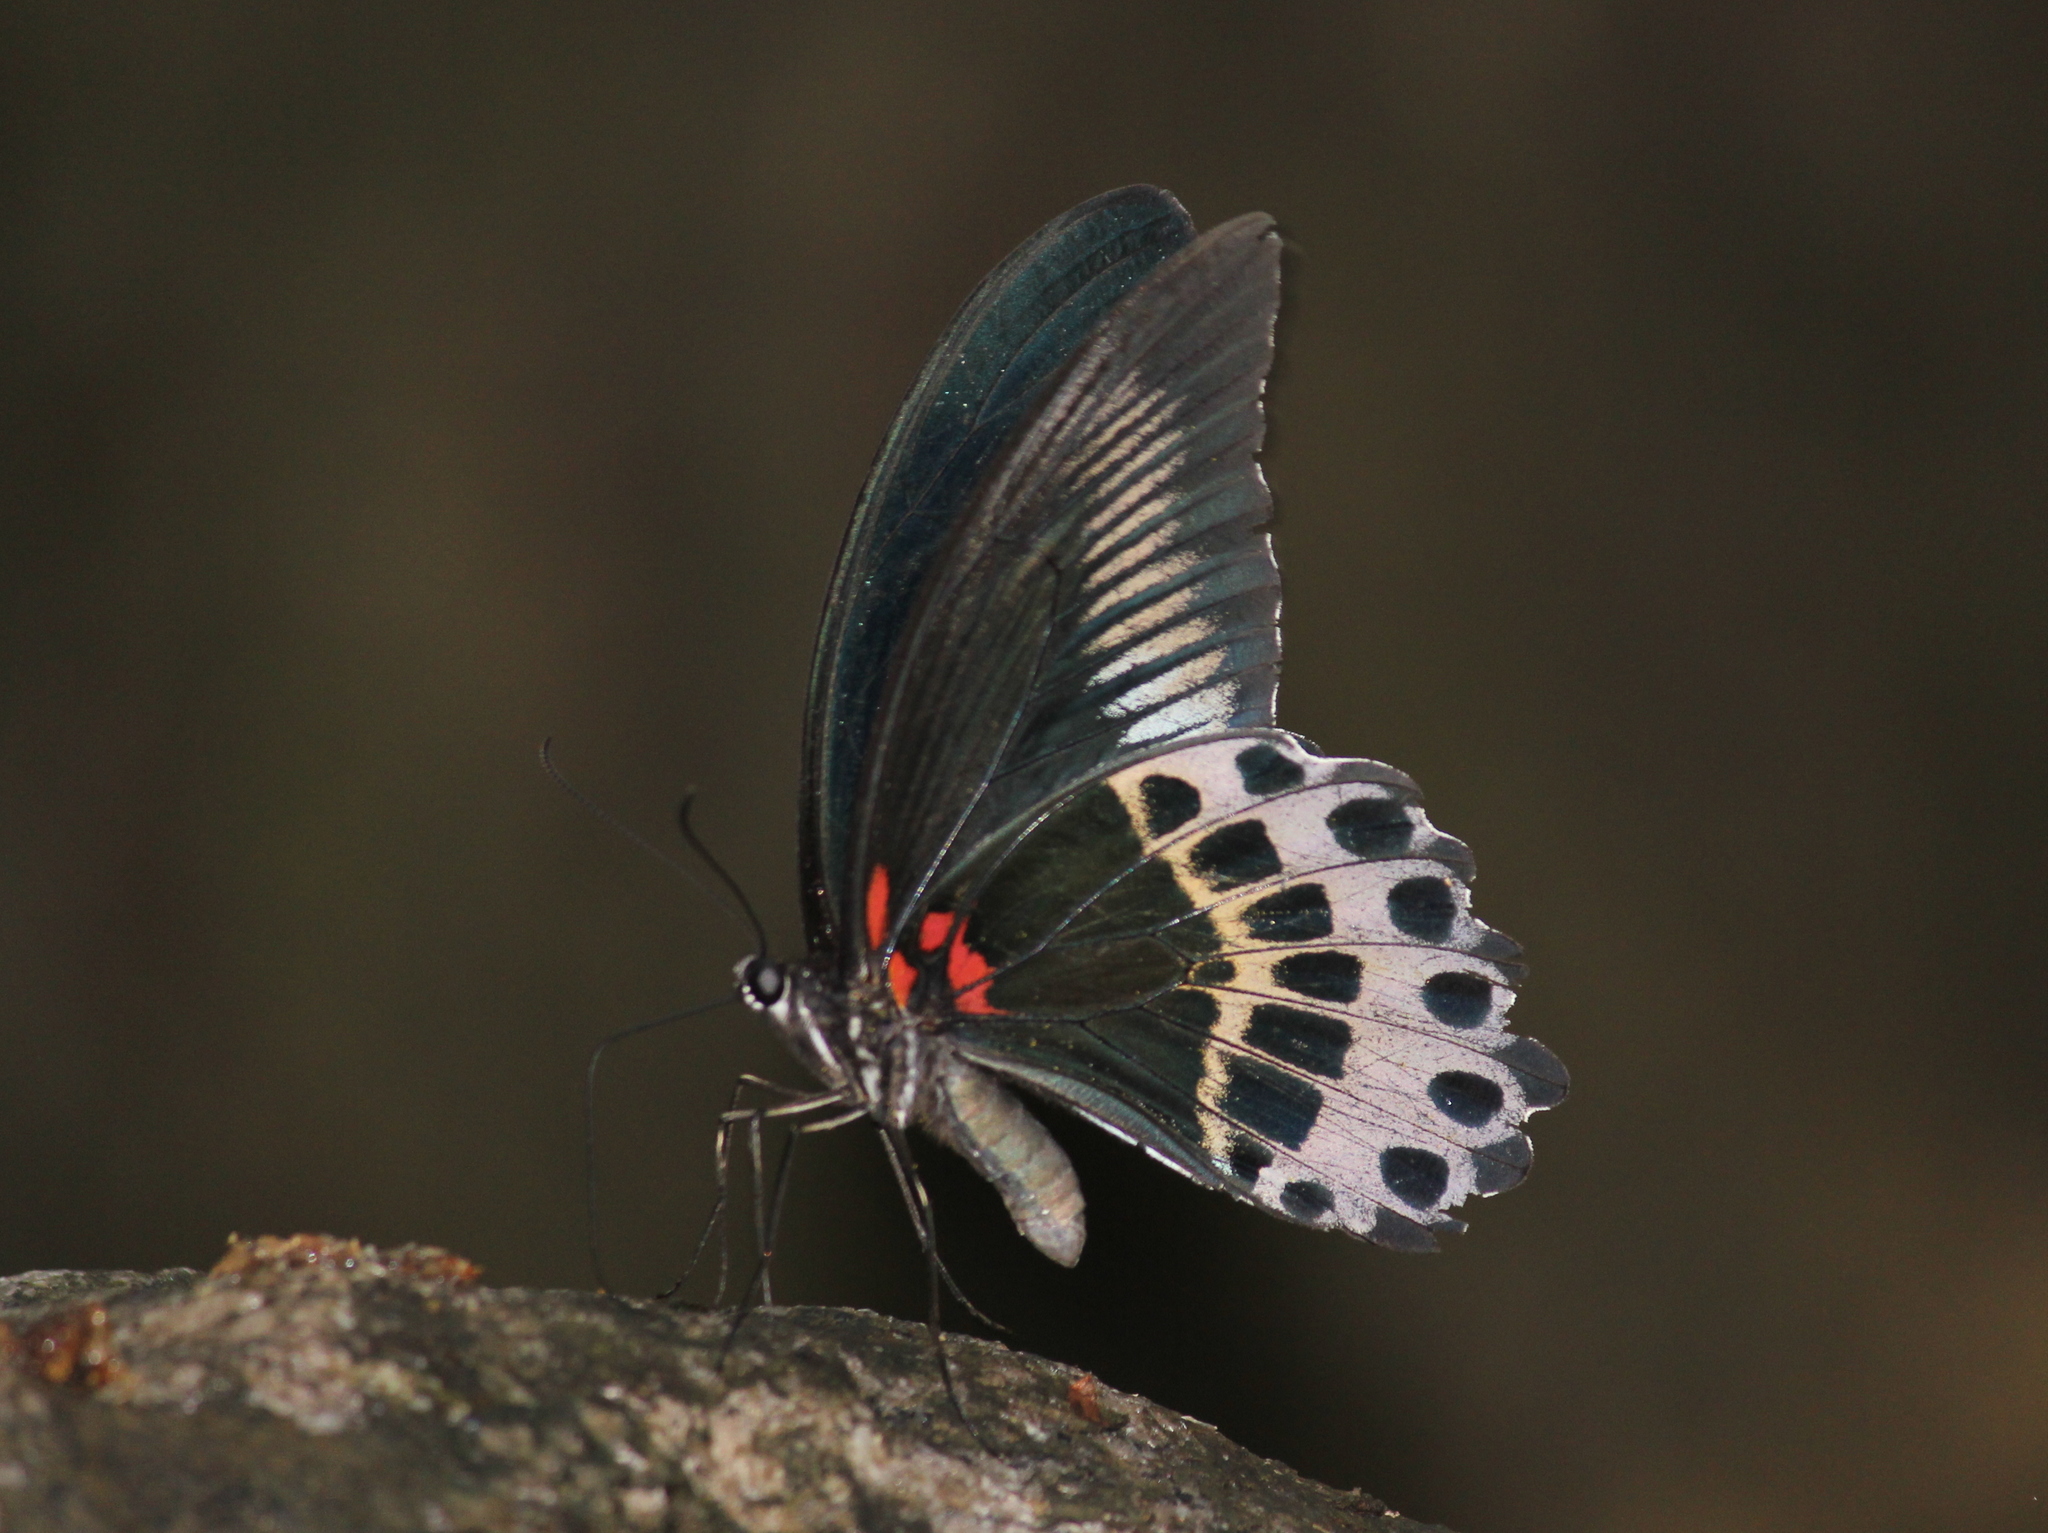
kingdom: Animalia
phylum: Arthropoda
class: Insecta
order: Lepidoptera
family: Papilionidae
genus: Papilio
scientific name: Papilio memnon
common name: Great mormon
